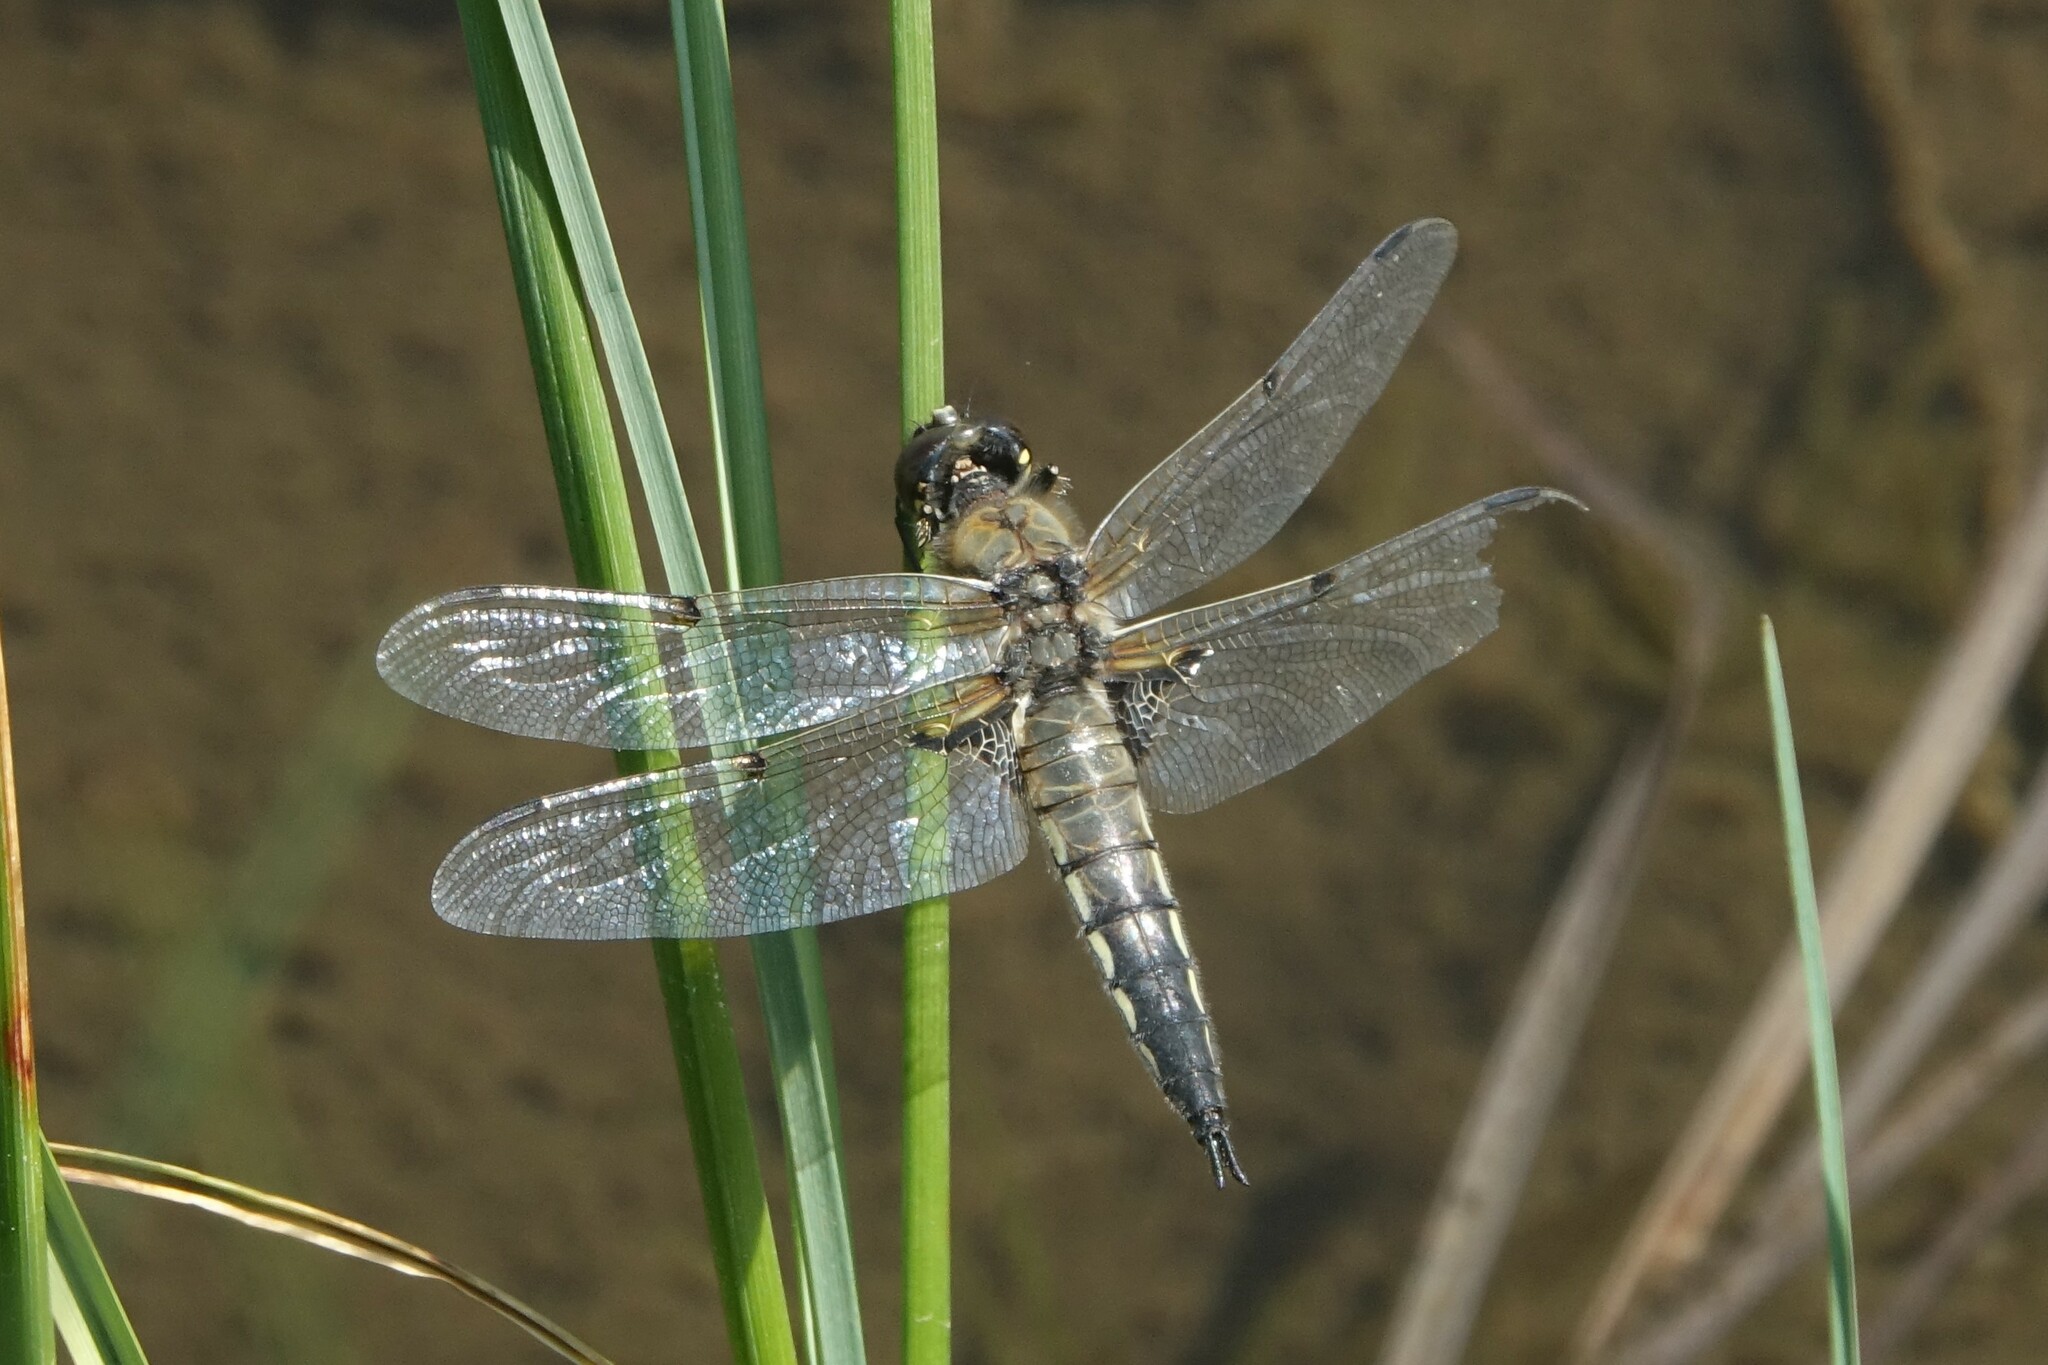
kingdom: Animalia
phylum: Arthropoda
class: Insecta
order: Odonata
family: Libellulidae
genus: Libellula
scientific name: Libellula quadrimaculata
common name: Four-spotted chaser
